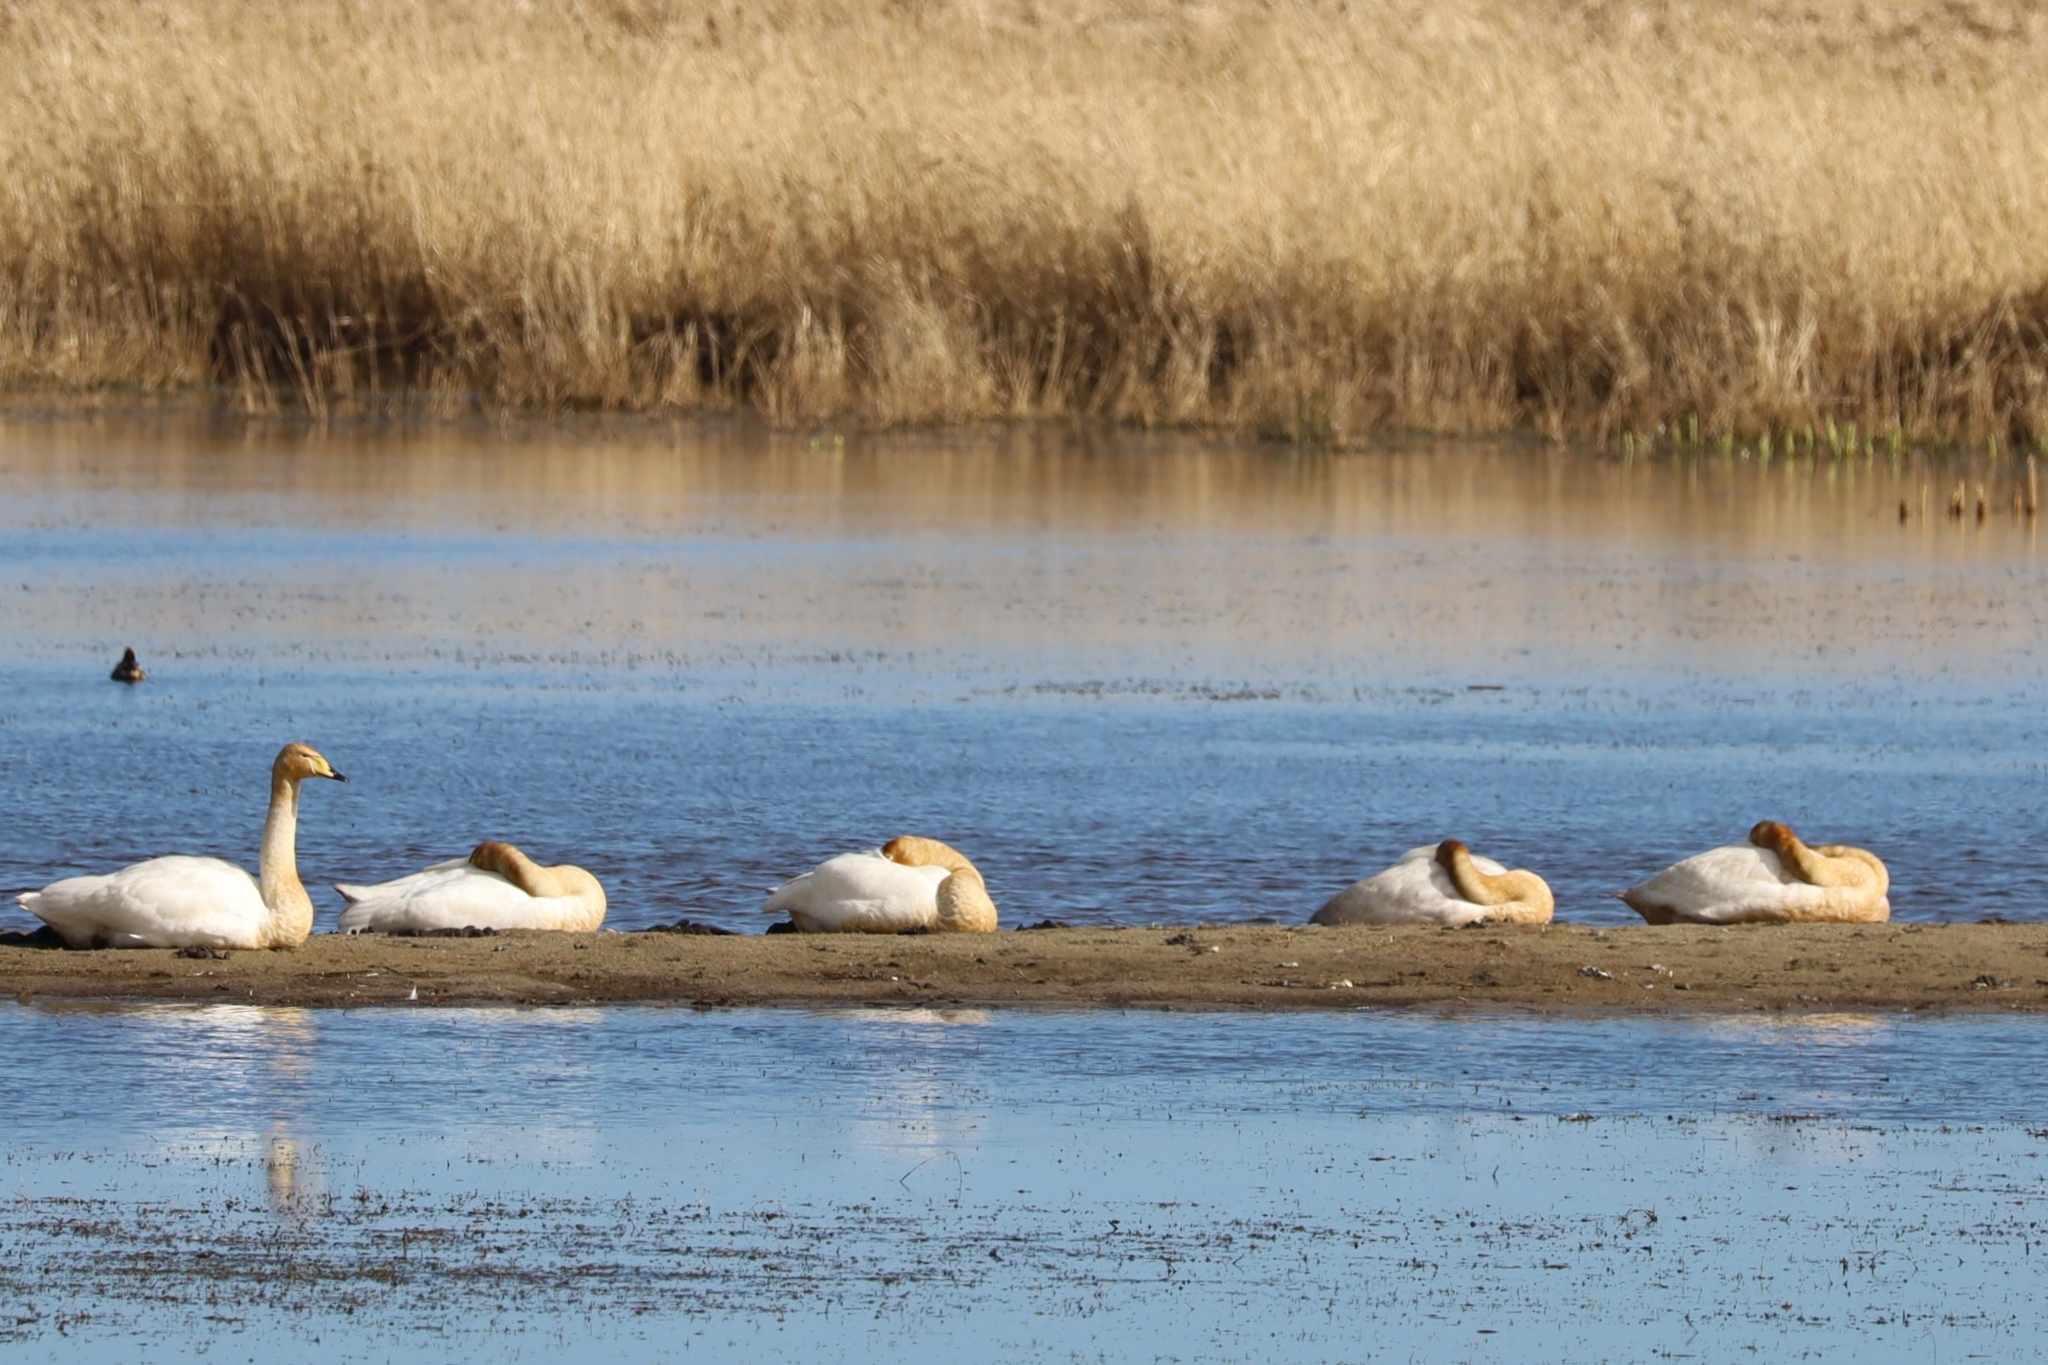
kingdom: Animalia
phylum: Chordata
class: Aves
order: Anseriformes
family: Anatidae
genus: Cygnus
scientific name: Cygnus cygnus
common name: Whooper swan
